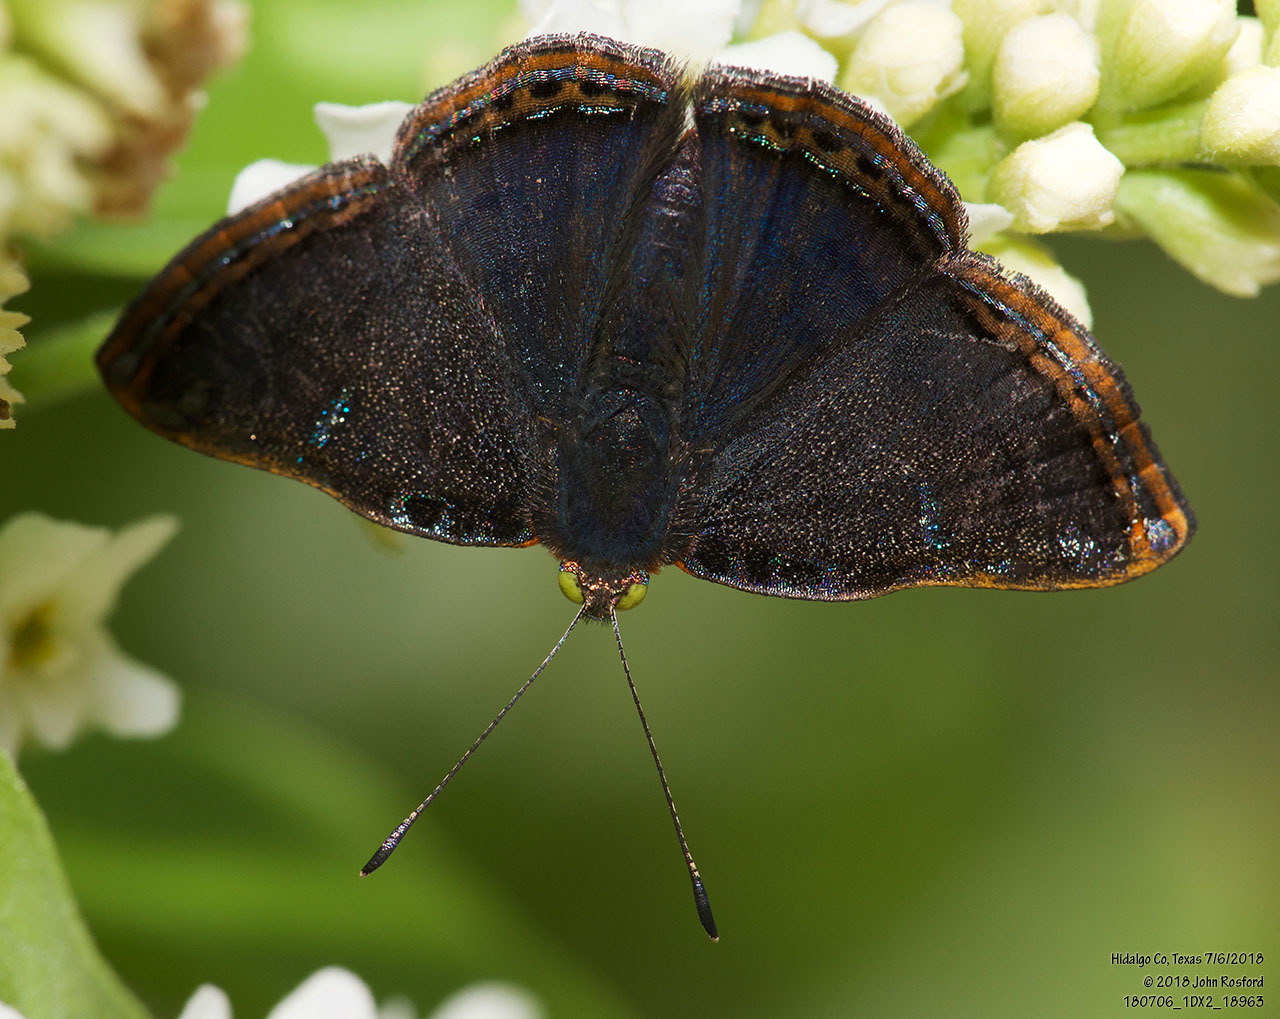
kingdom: Animalia
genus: Caria
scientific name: Caria ino
